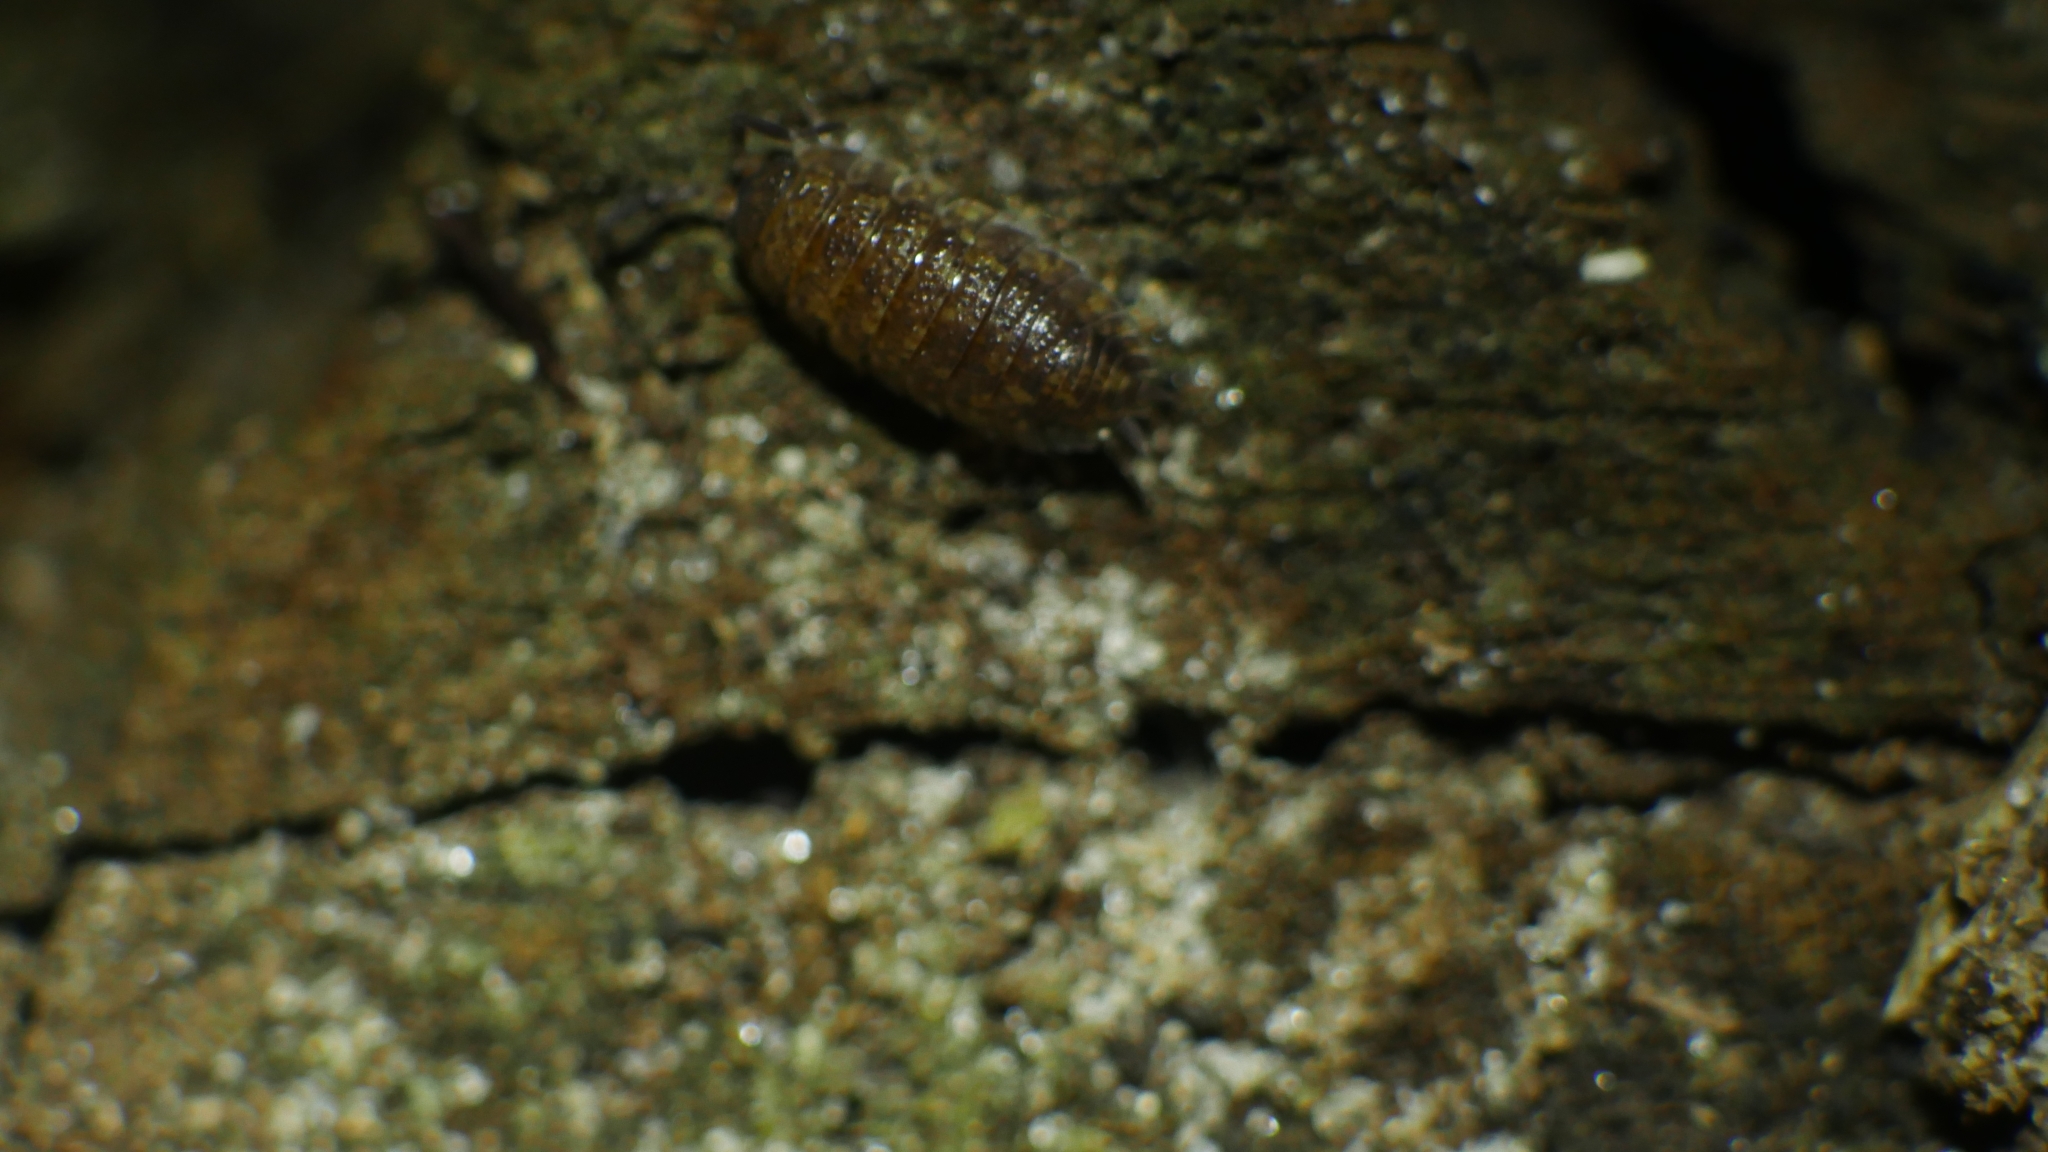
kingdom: Animalia
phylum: Arthropoda
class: Malacostraca
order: Isopoda
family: Porcellionidae
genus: Porcellio
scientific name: Porcellio scaber
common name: Common rough woodlouse
